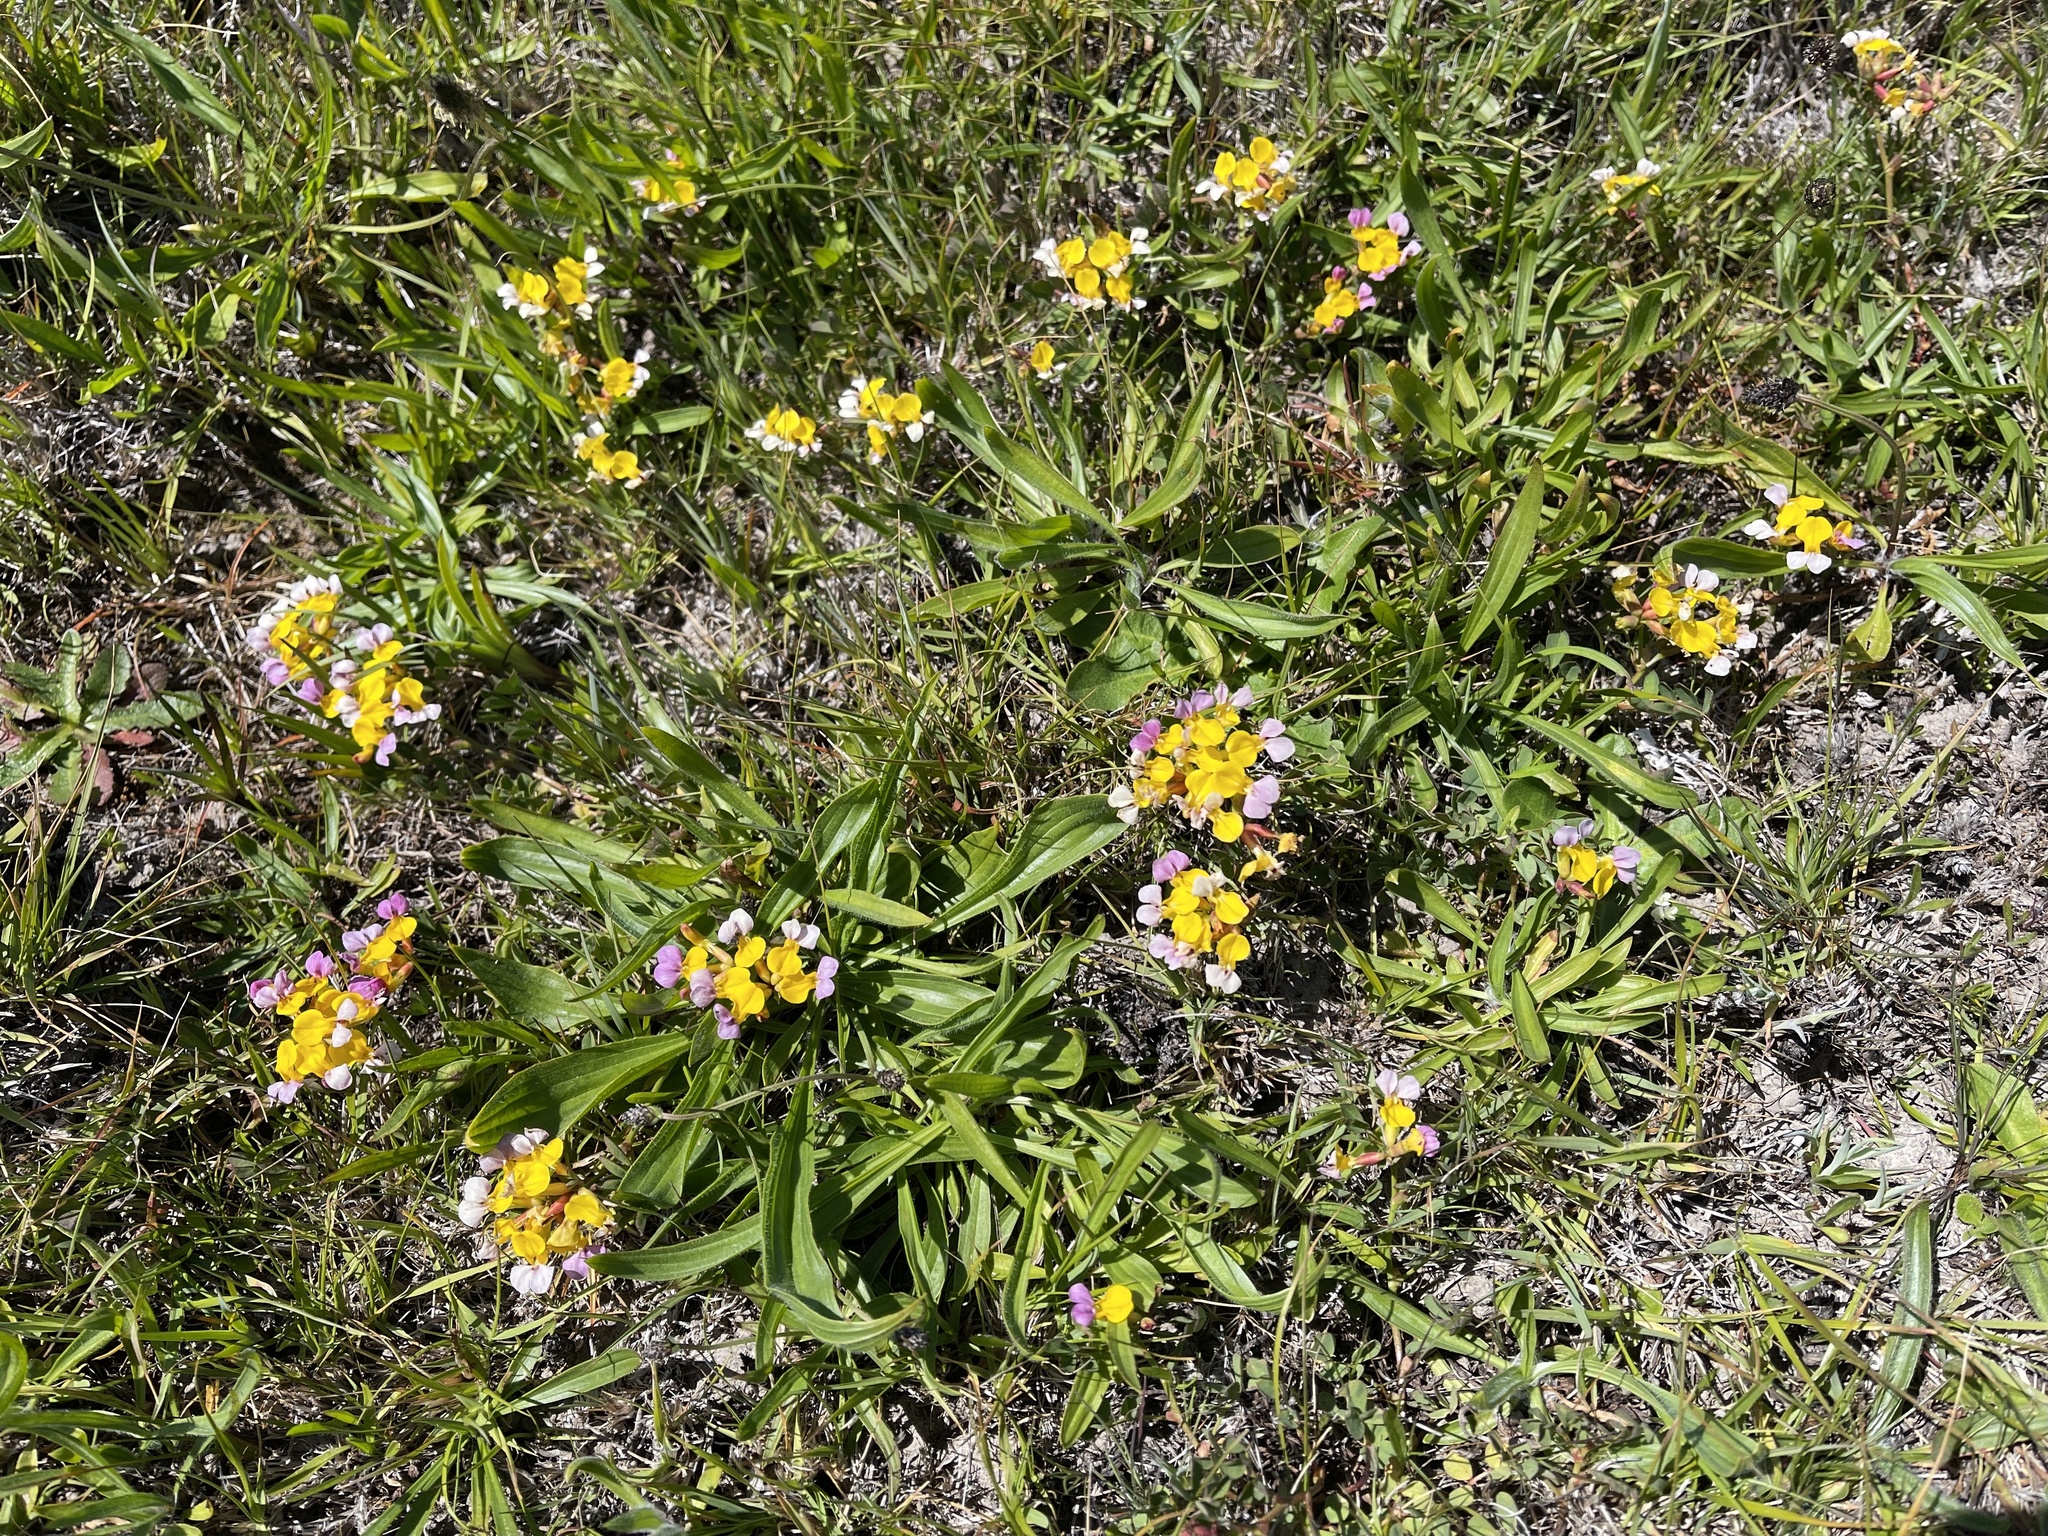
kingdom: Plantae
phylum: Tracheophyta
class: Magnoliopsida
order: Fabales
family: Fabaceae
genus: Hosackia
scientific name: Hosackia gracilis
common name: Seaside bird's-foot lotus
